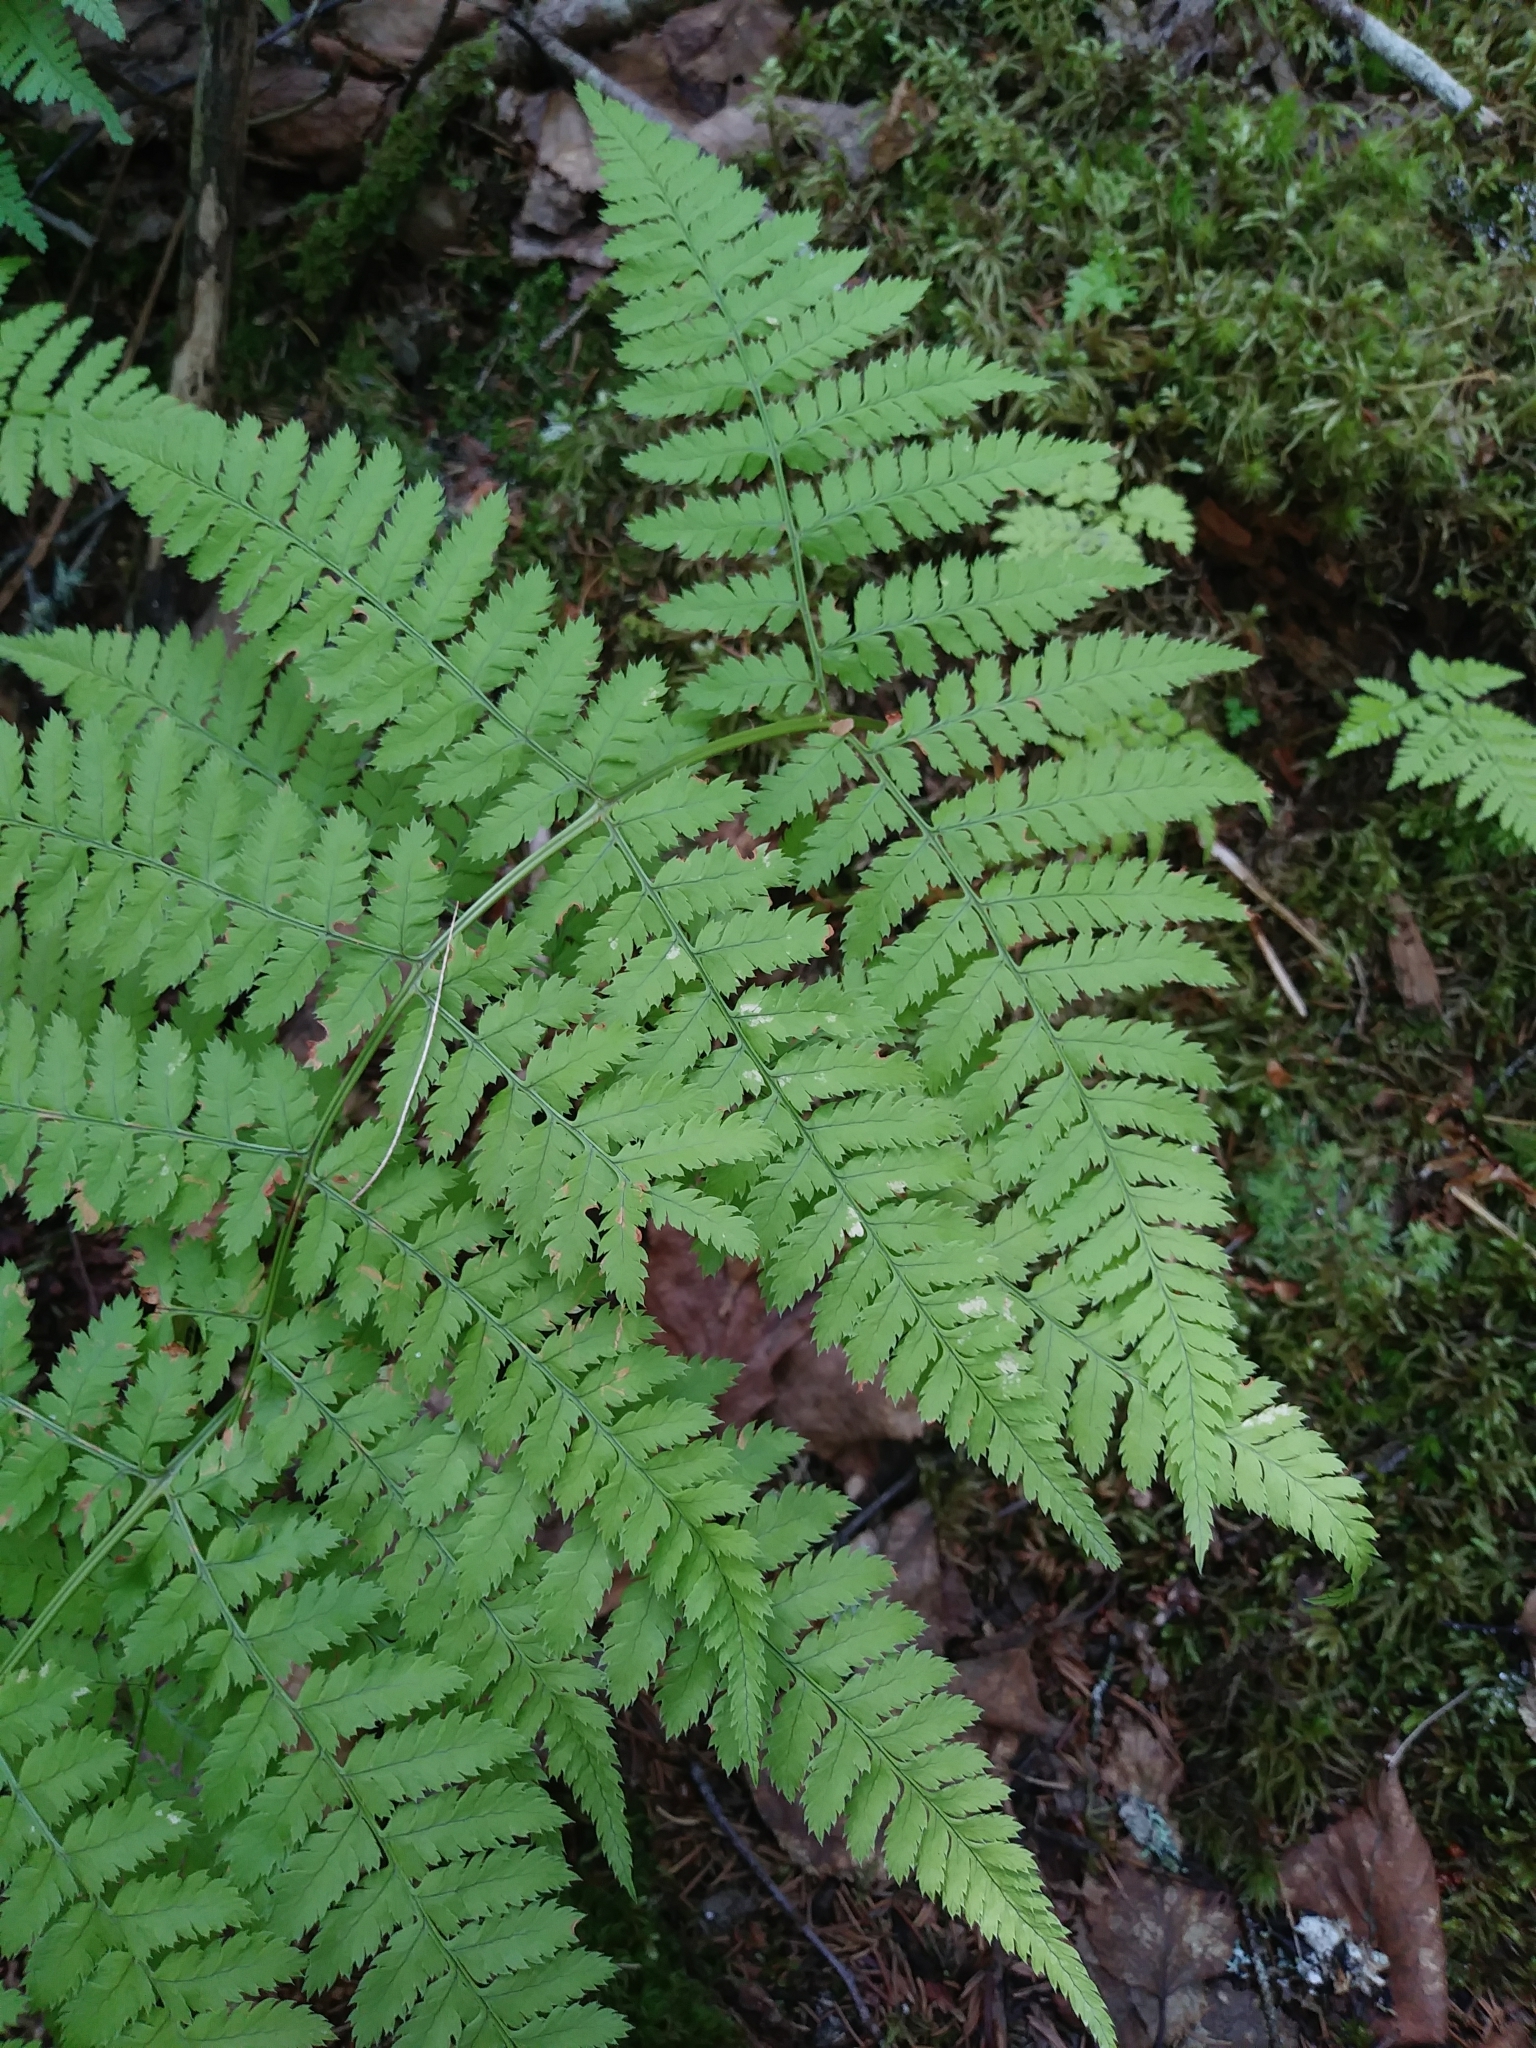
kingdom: Plantae
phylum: Tracheophyta
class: Polypodiopsida
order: Polypodiales
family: Dryopteridaceae
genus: Dryopteris
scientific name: Dryopteris campyloptera
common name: Mountain wood fern
